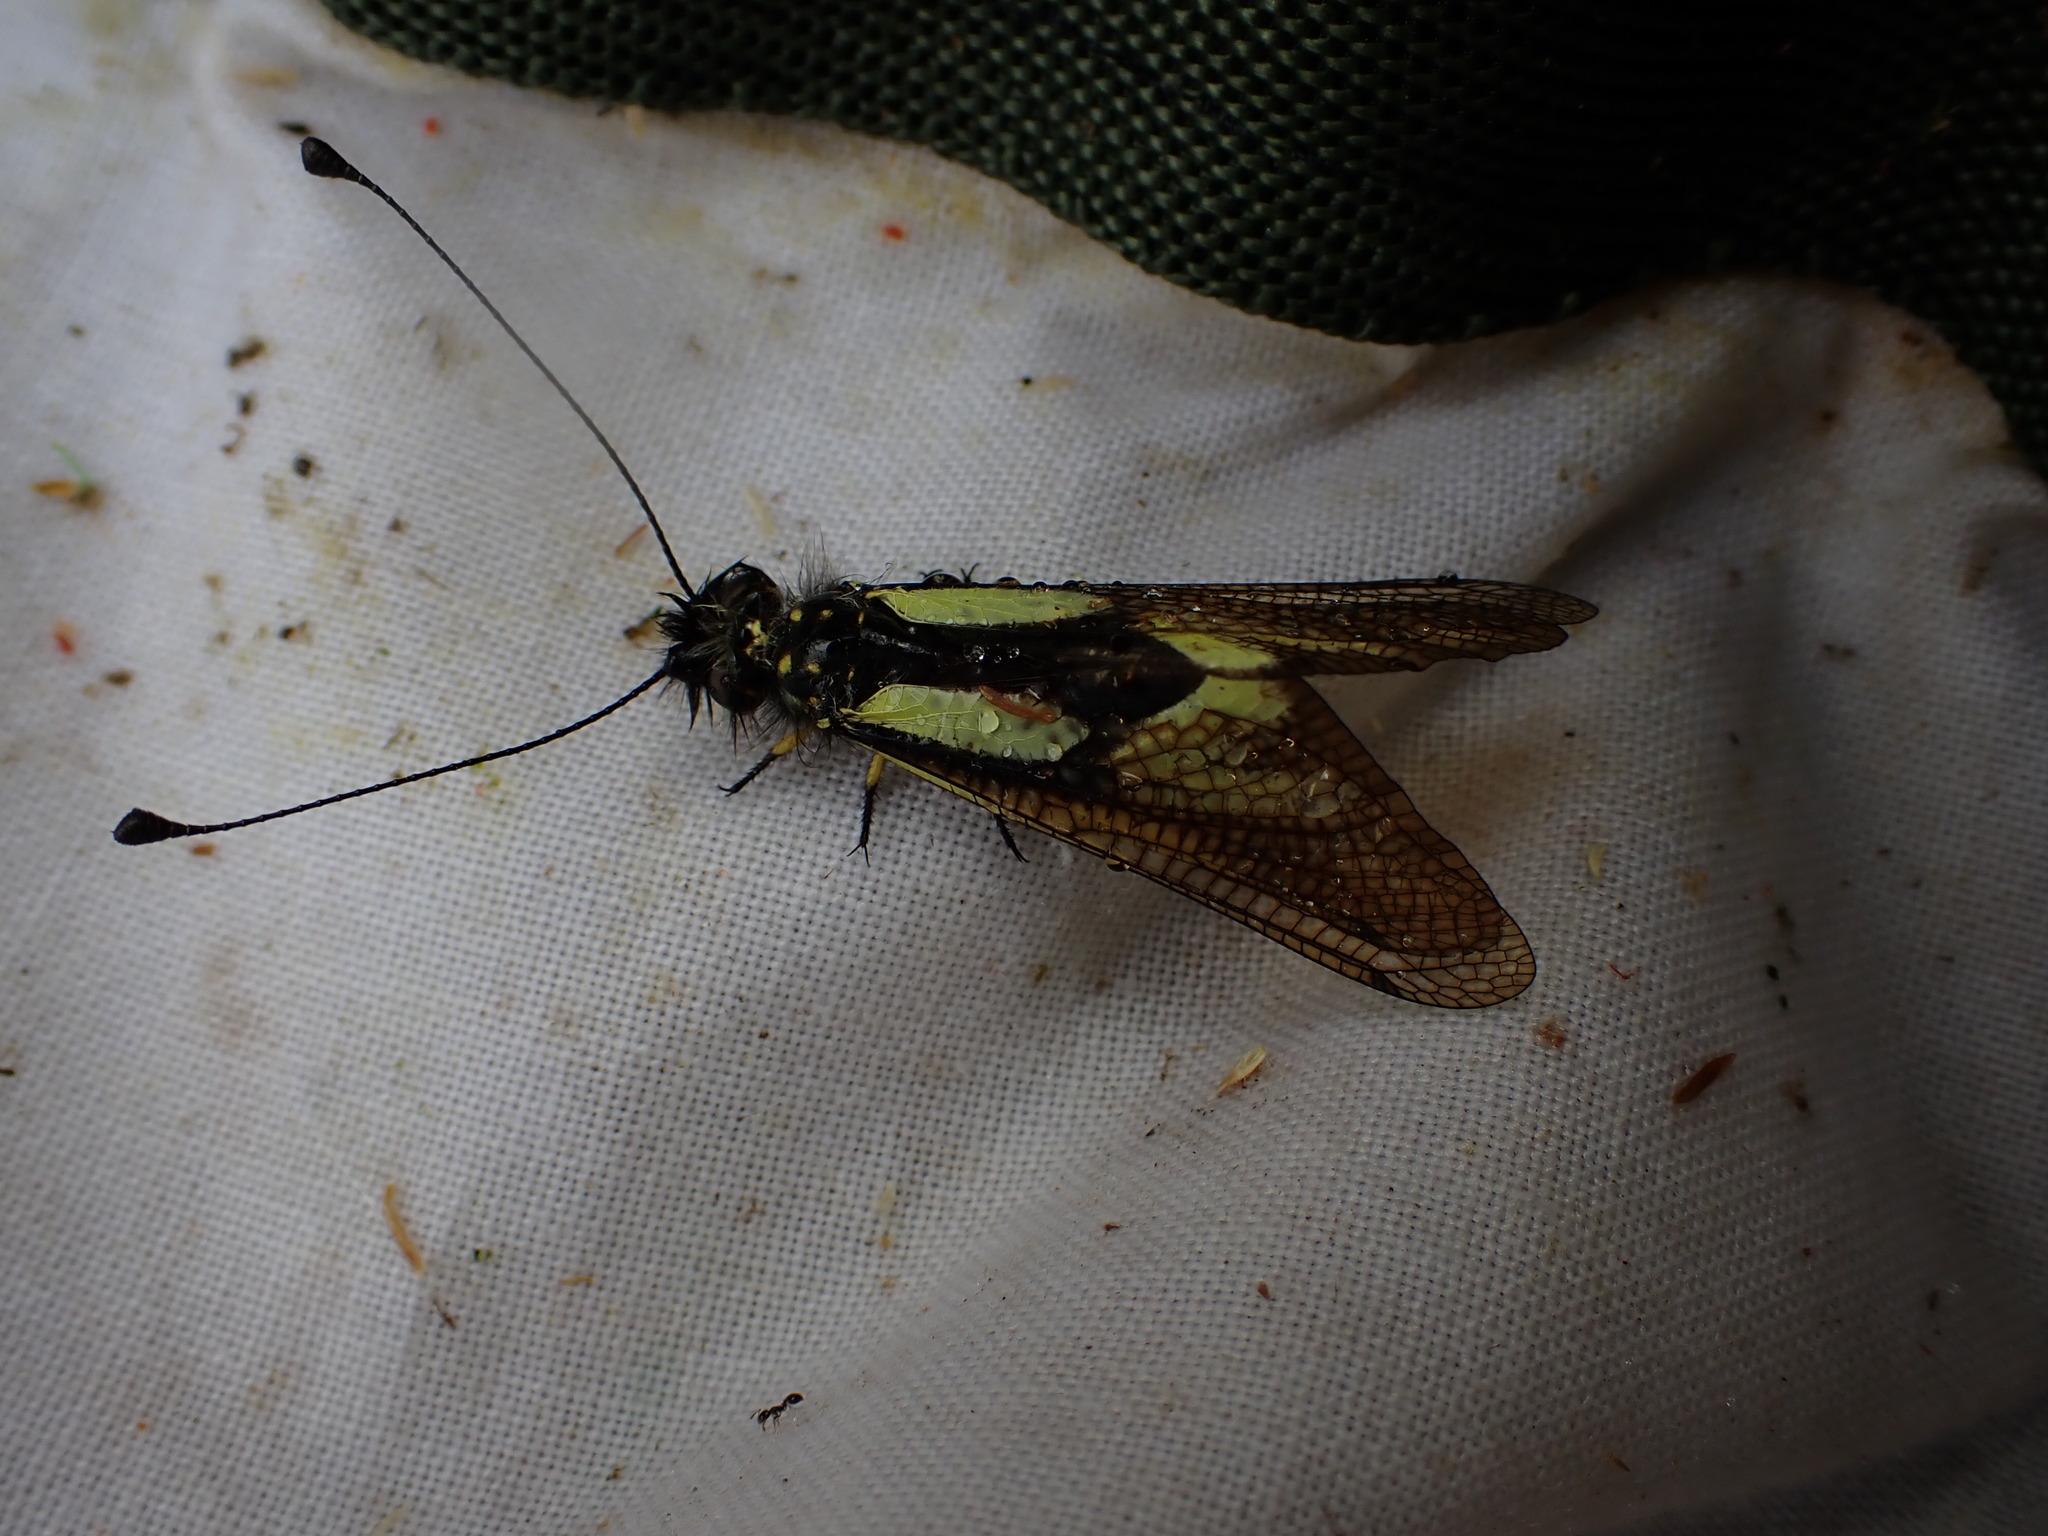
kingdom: Animalia
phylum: Arthropoda
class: Insecta
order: Neuroptera
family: Ascalaphidae
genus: Libelloides
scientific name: Libelloides coccajus
